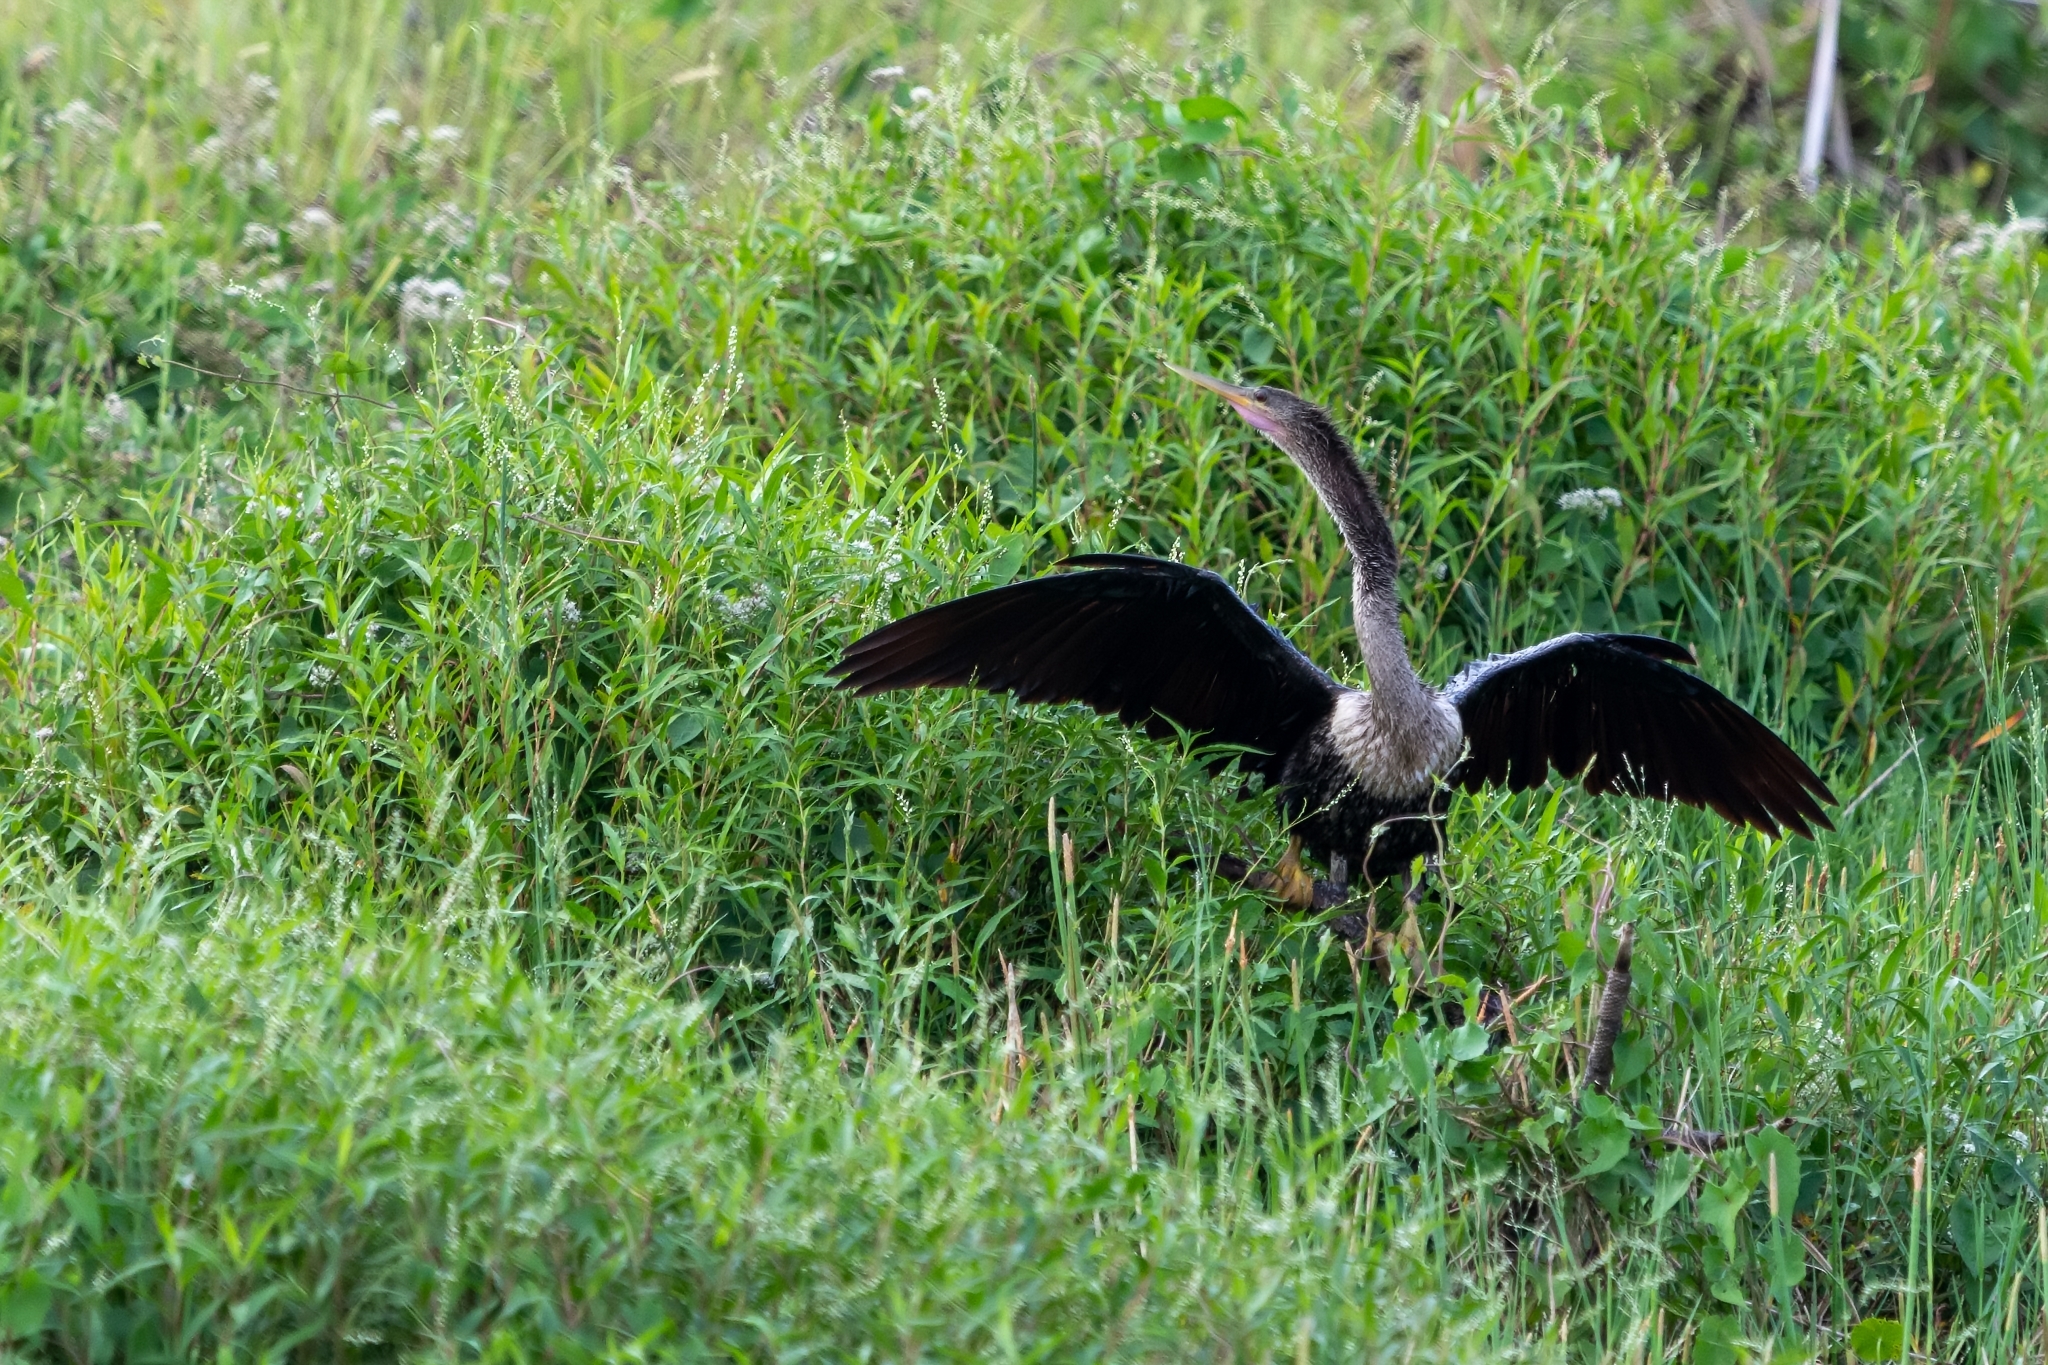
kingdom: Animalia
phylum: Chordata
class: Aves
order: Suliformes
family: Anhingidae
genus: Anhinga
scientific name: Anhinga anhinga
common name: Anhinga
